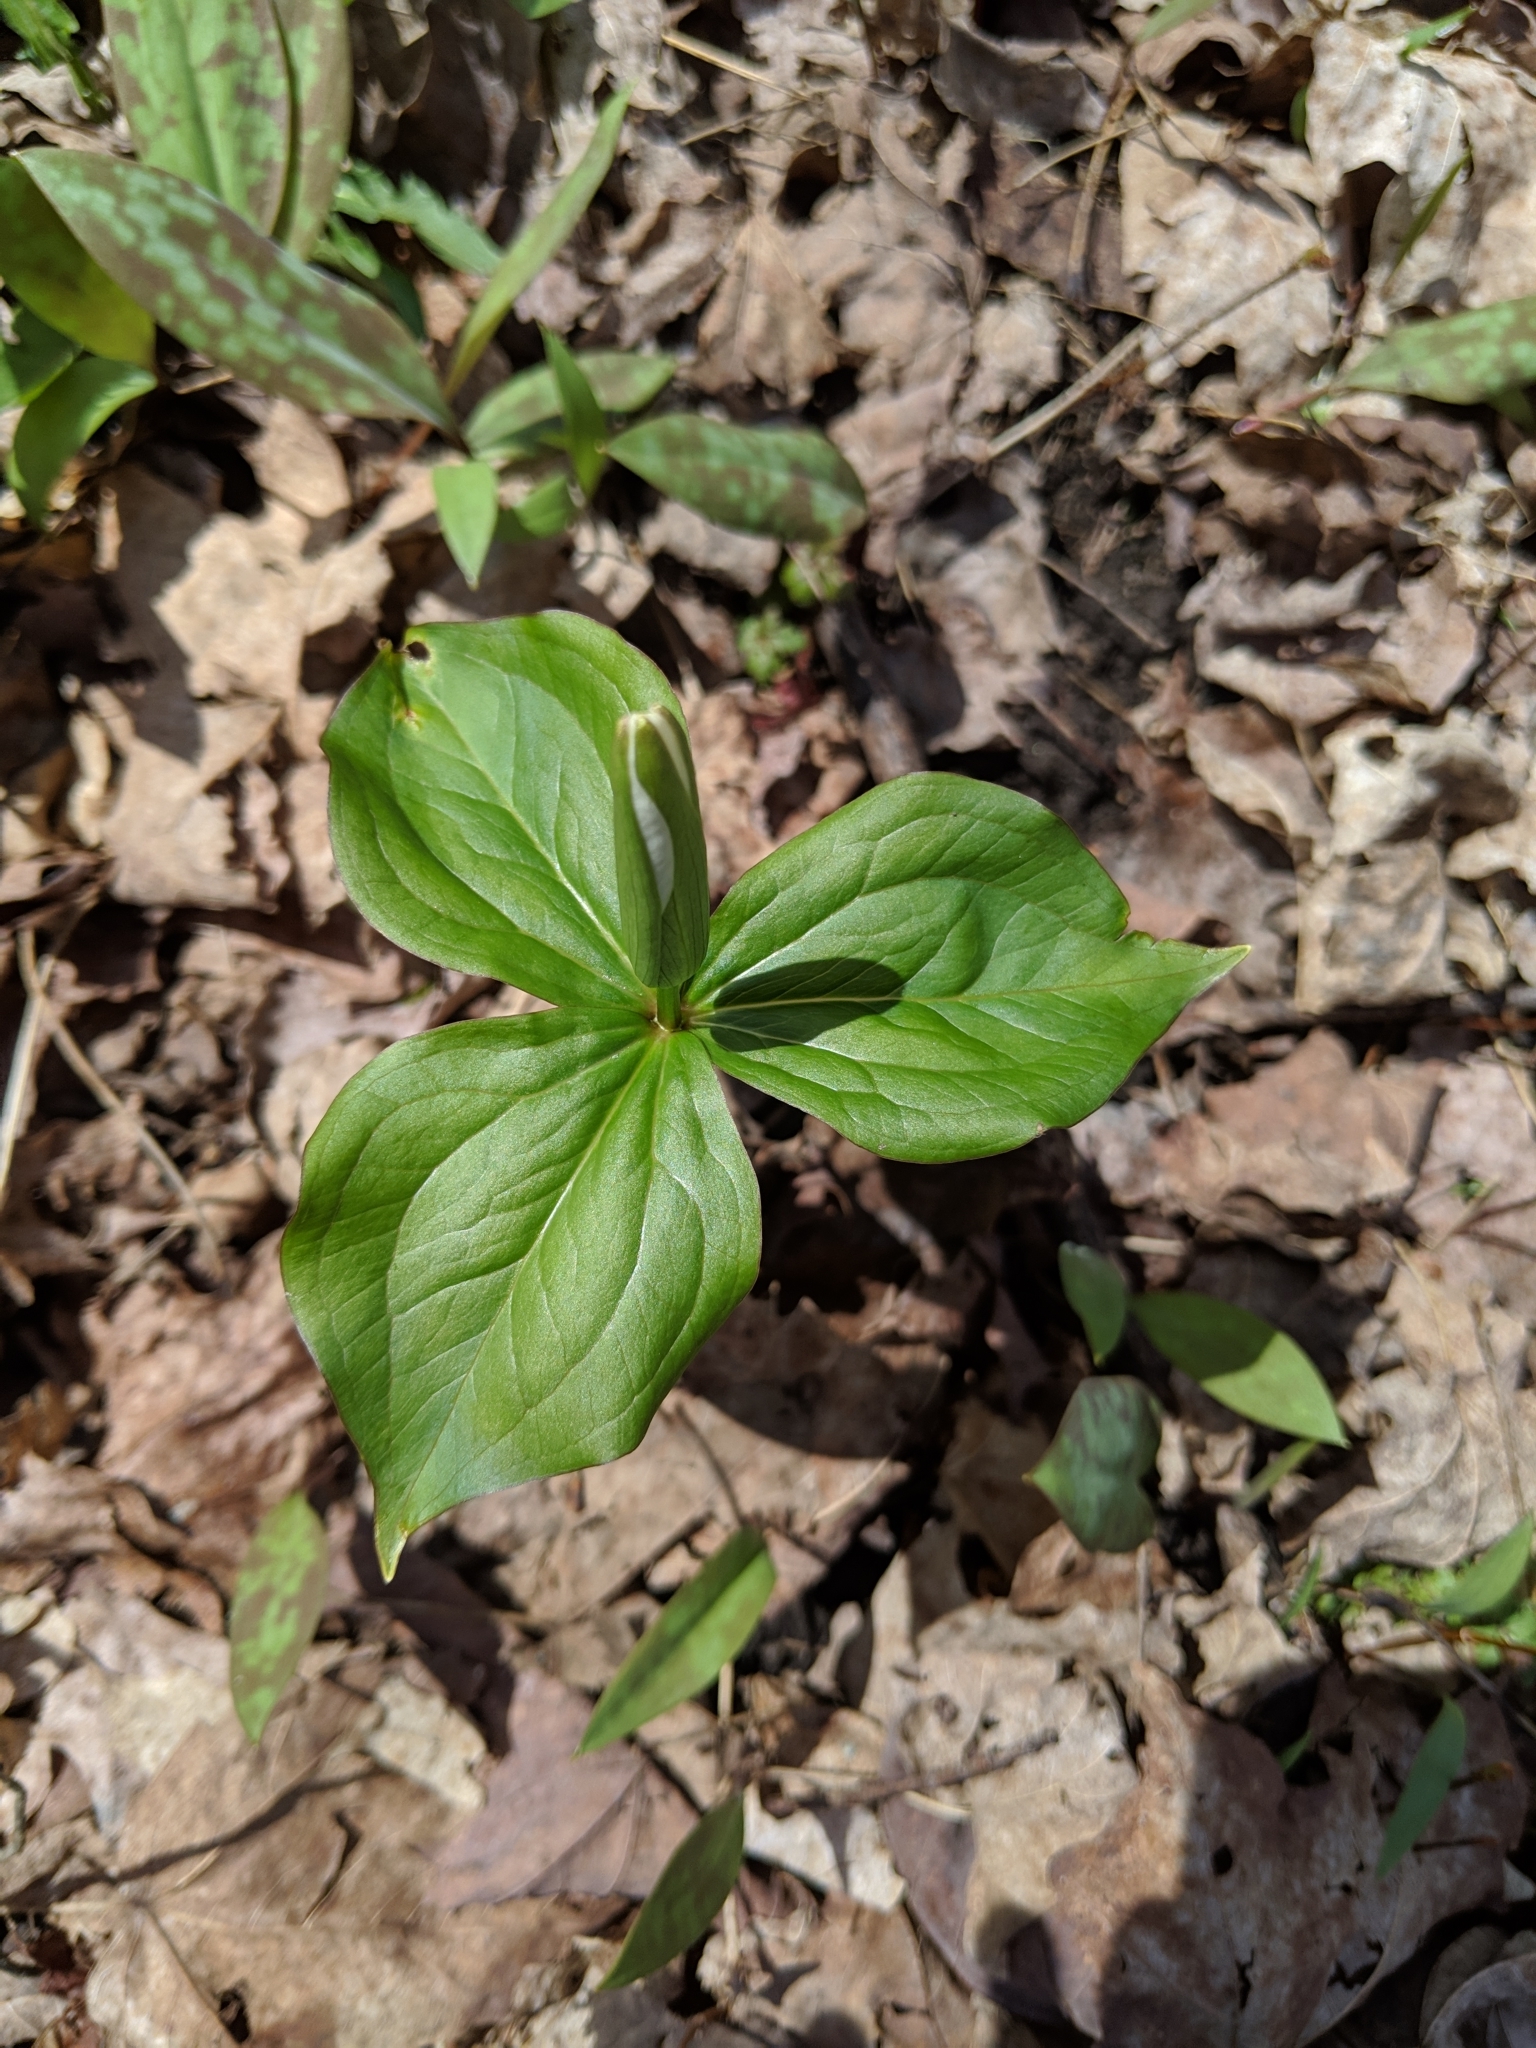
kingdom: Plantae
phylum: Tracheophyta
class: Liliopsida
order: Liliales
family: Melanthiaceae
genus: Trillium
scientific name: Trillium grandiflorum
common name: Great white trillium
